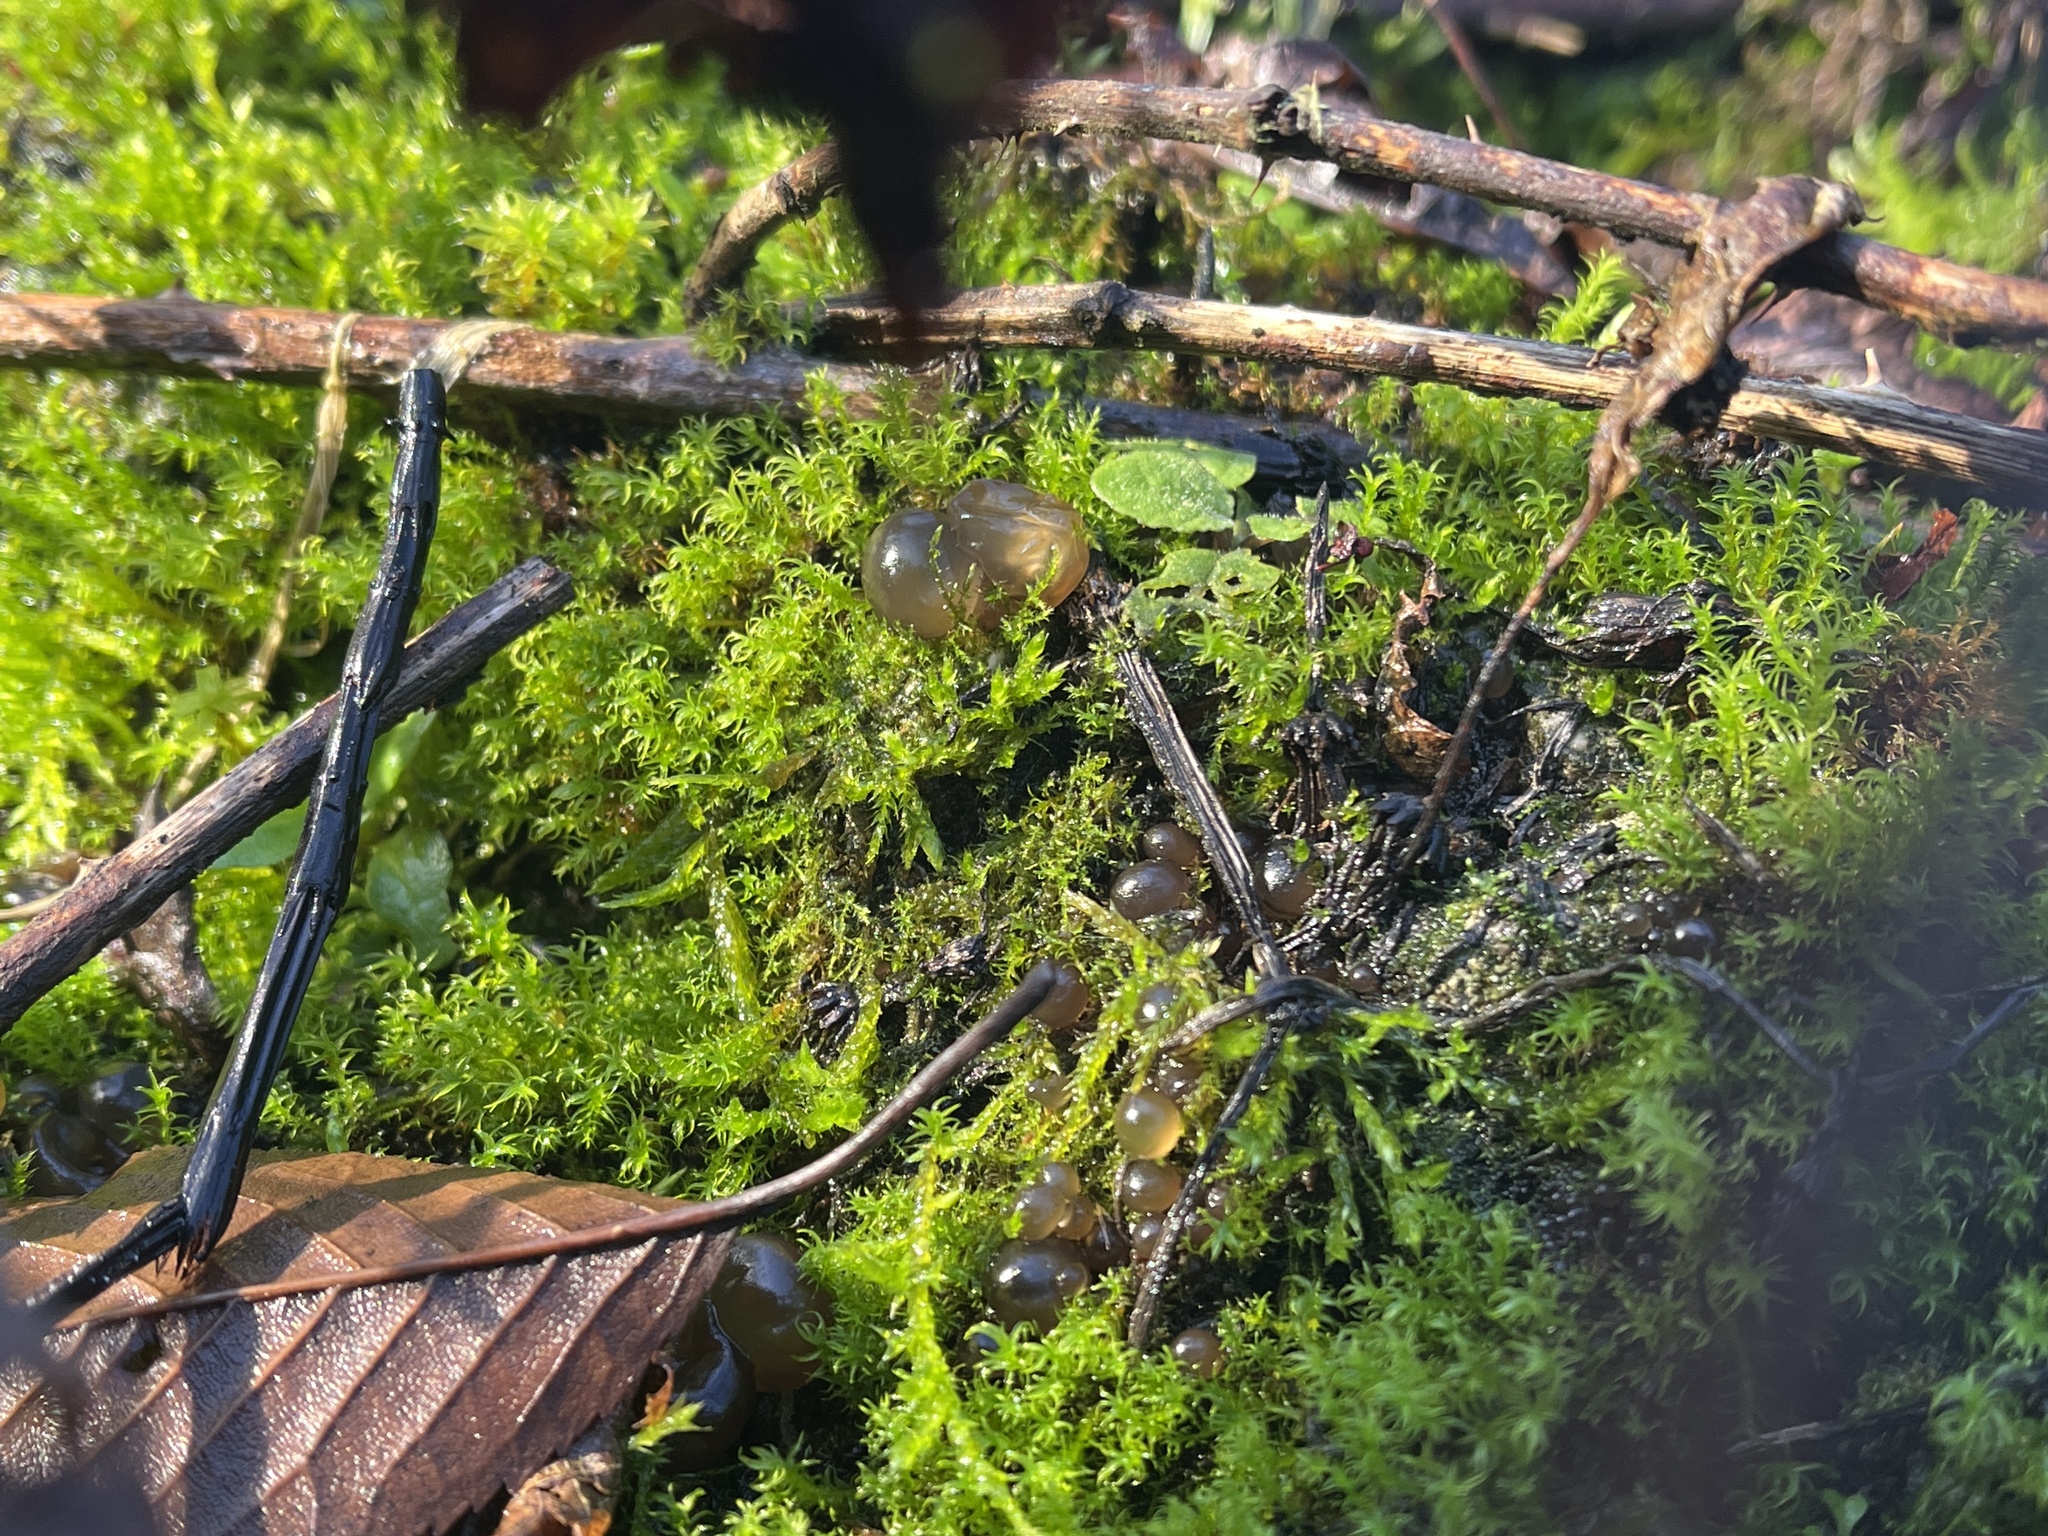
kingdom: Bacteria
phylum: Cyanobacteria
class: Cyanobacteriia
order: Cyanobacteriales
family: Nostocaceae
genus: Nostoc
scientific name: Nostoc commune
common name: Star jelly
